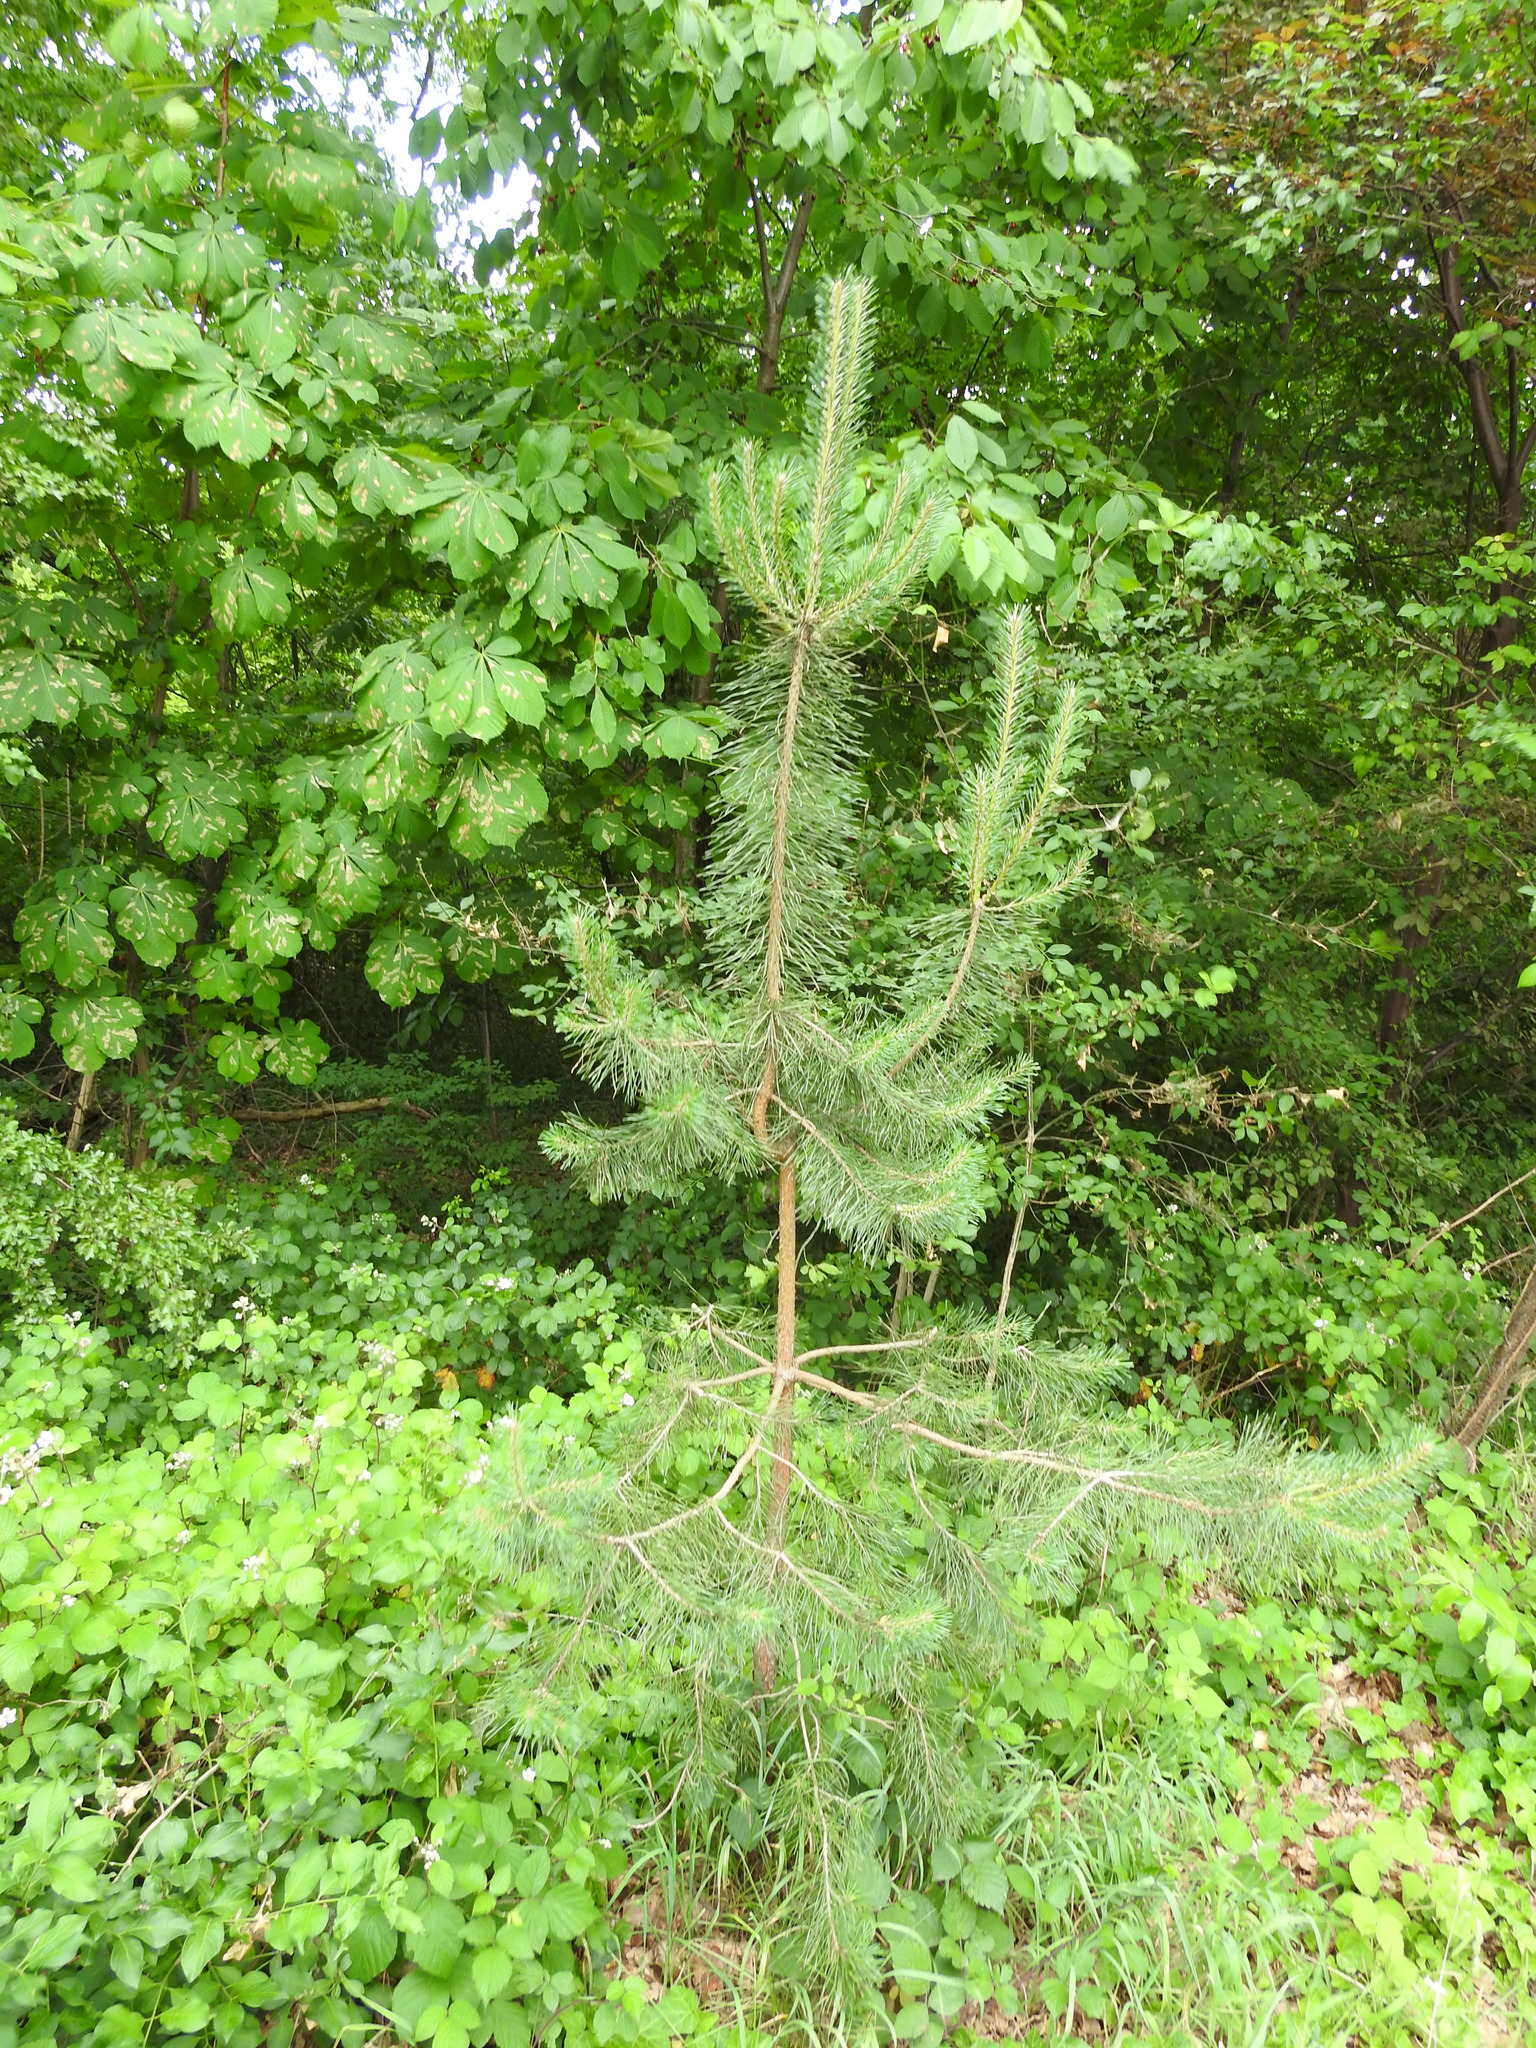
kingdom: Plantae
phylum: Tracheophyta
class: Pinopsida
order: Pinales
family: Pinaceae
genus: Pinus
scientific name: Pinus sylvestris
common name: Scots pine
